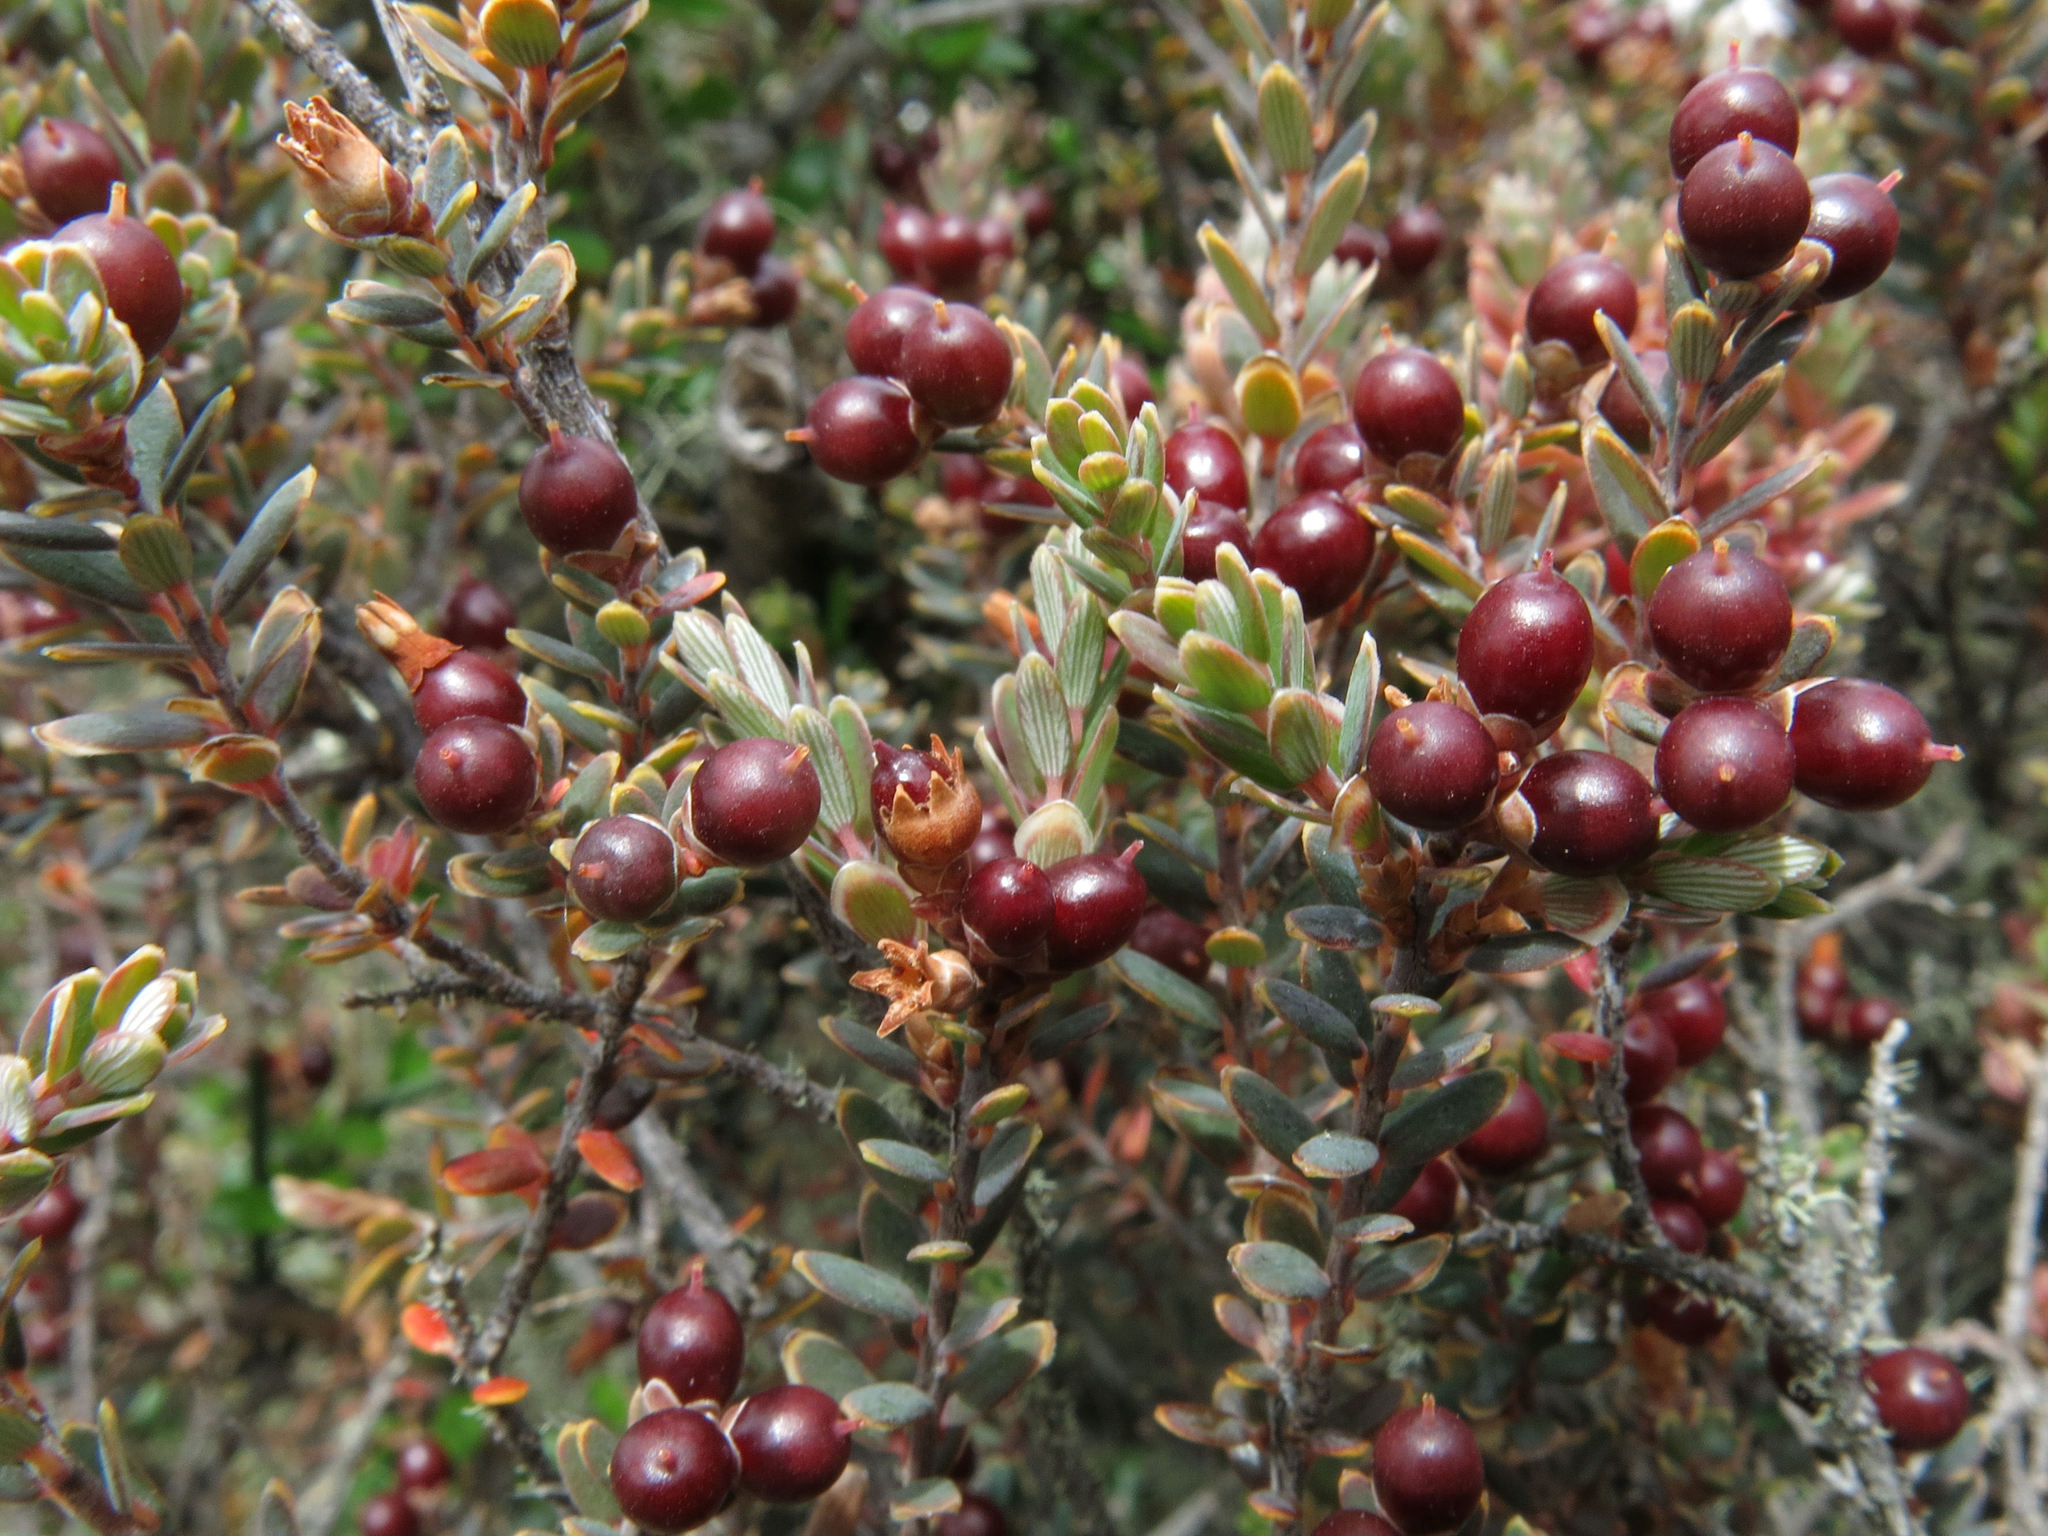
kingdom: Plantae
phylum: Tracheophyta
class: Magnoliopsida
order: Ericales
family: Ericaceae
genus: Acrothamnus
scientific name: Acrothamnus colensoi
